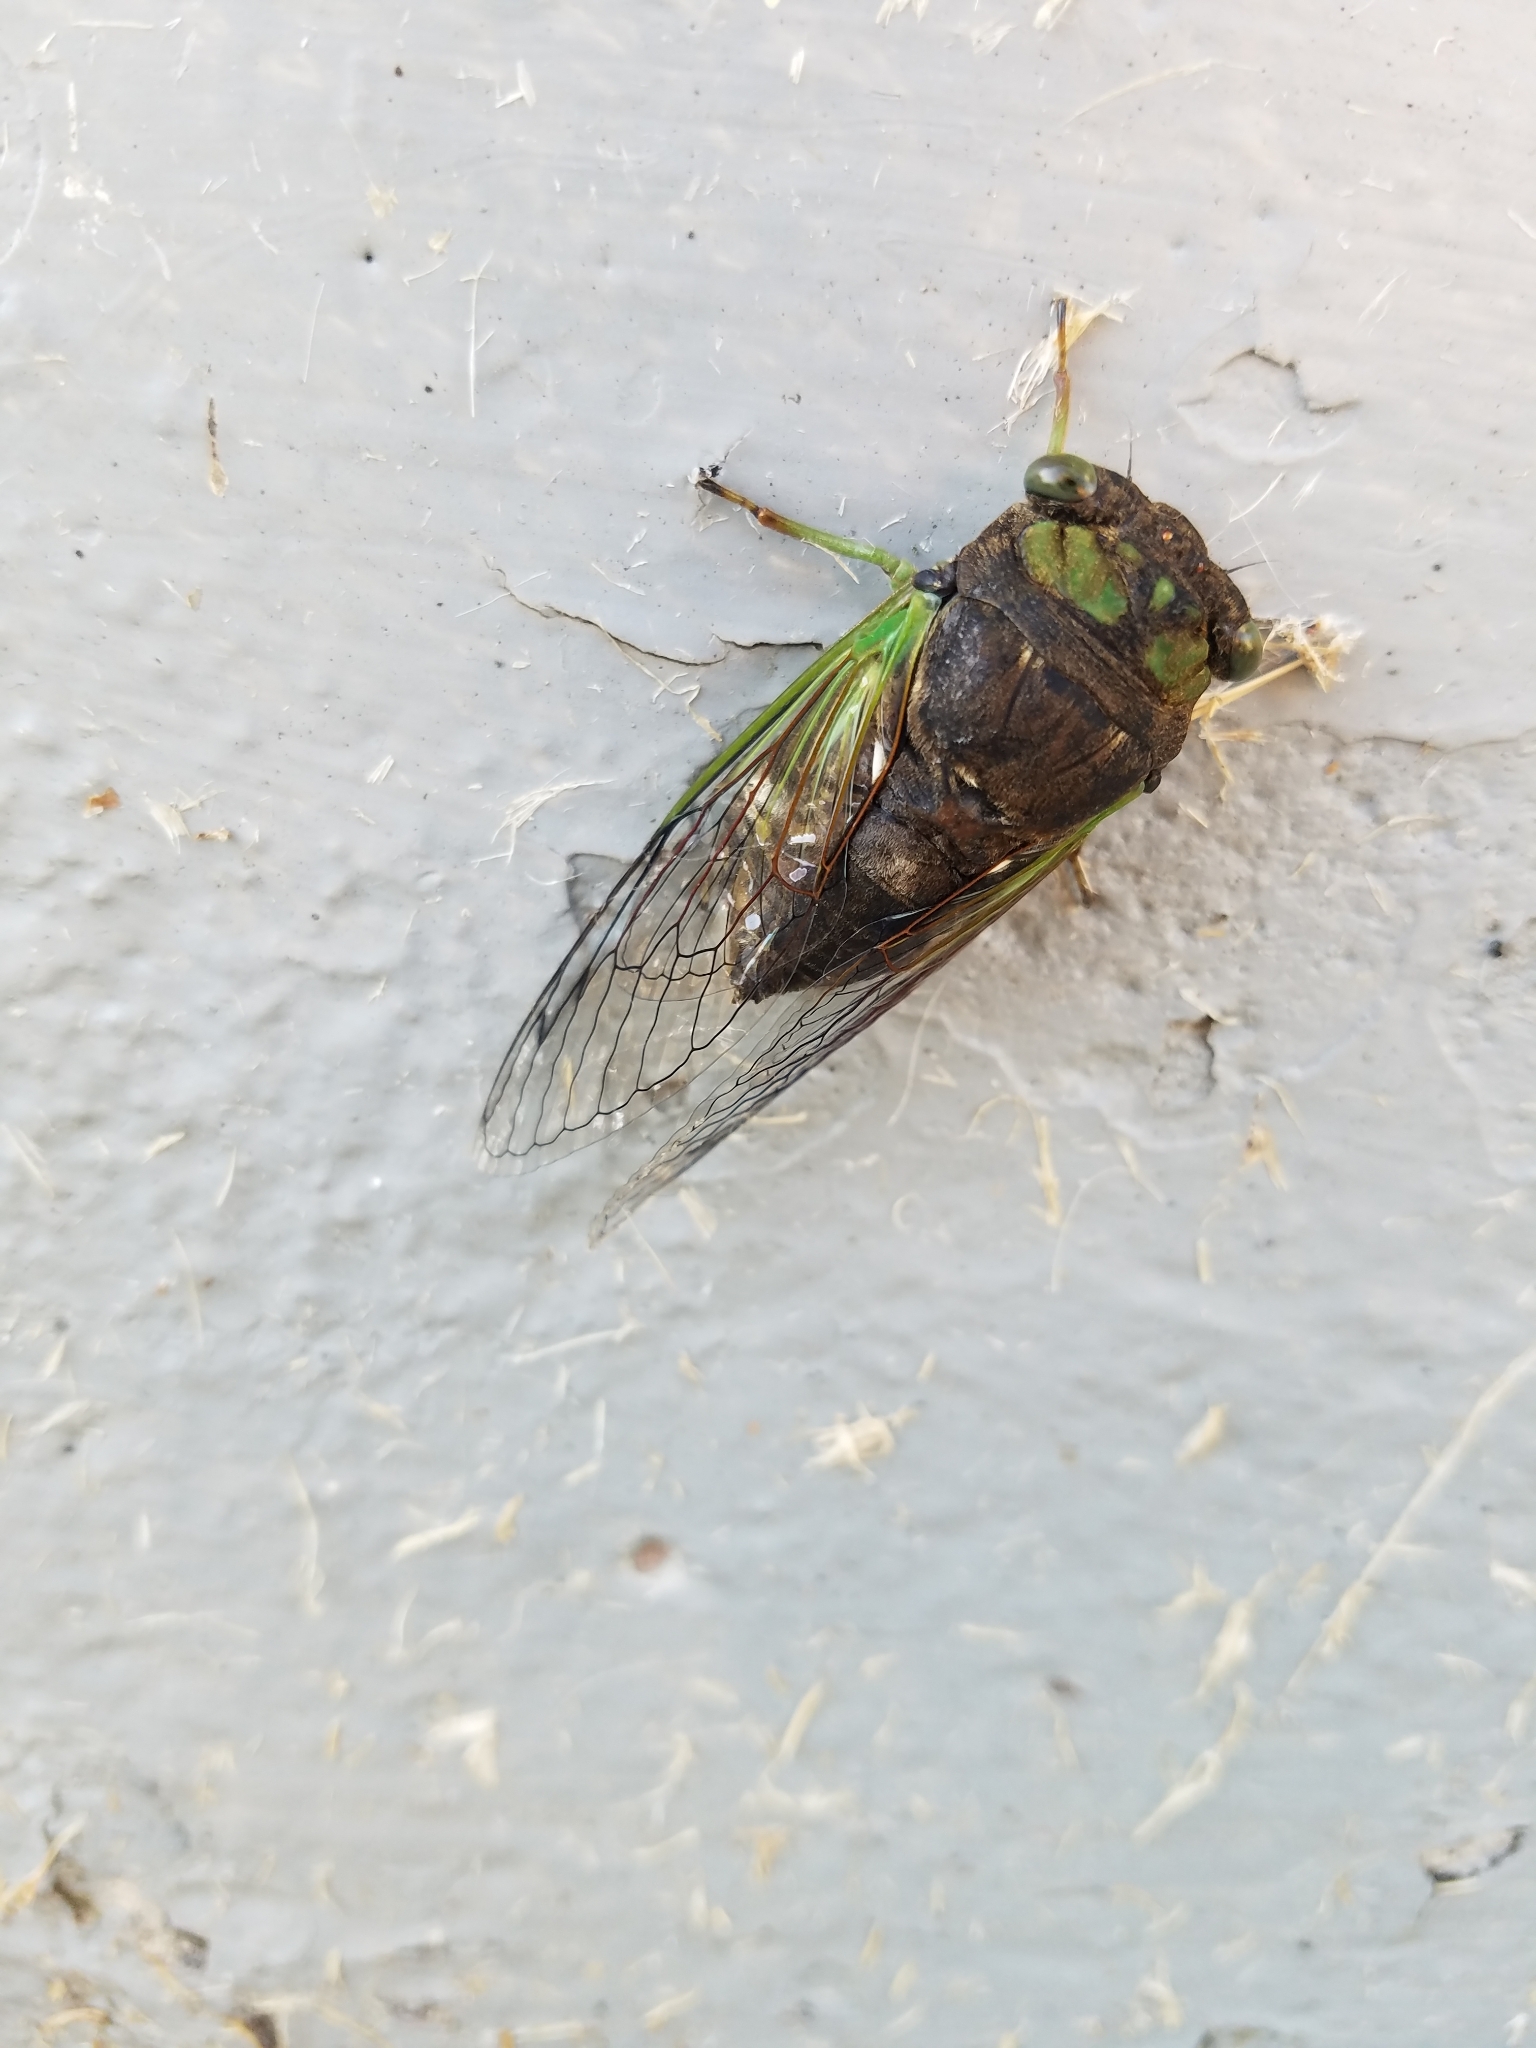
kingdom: Animalia
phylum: Arthropoda
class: Insecta
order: Hemiptera
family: Cicadidae
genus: Neotibicen
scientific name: Neotibicen tibicen
